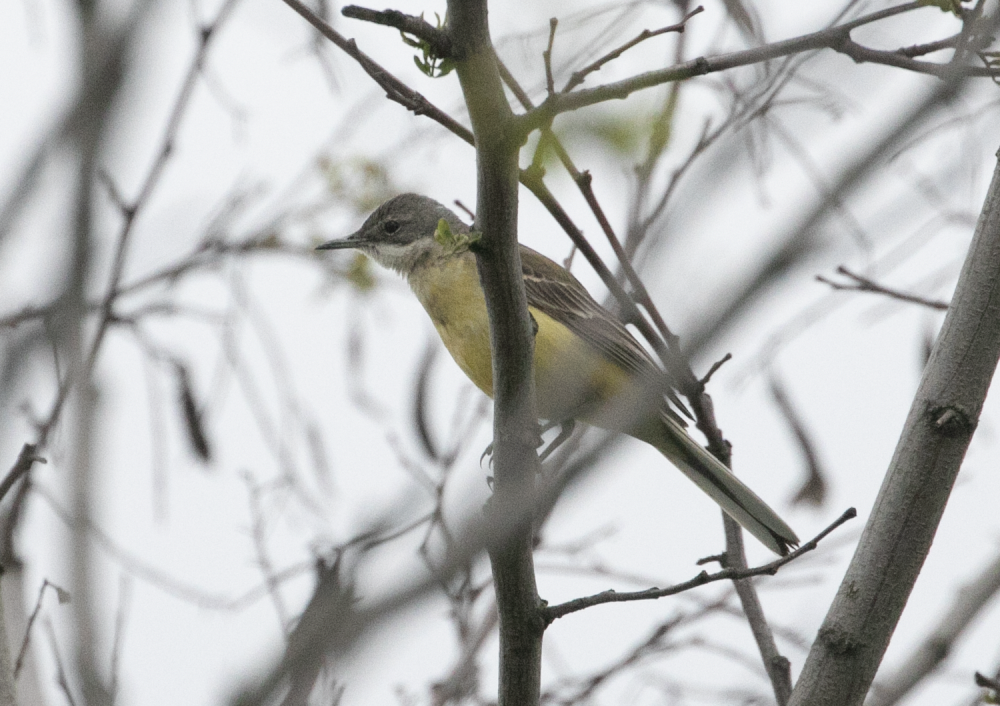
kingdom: Animalia
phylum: Chordata
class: Aves
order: Passeriformes
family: Motacillidae
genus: Motacilla
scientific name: Motacilla flava
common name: Western yellow wagtail
